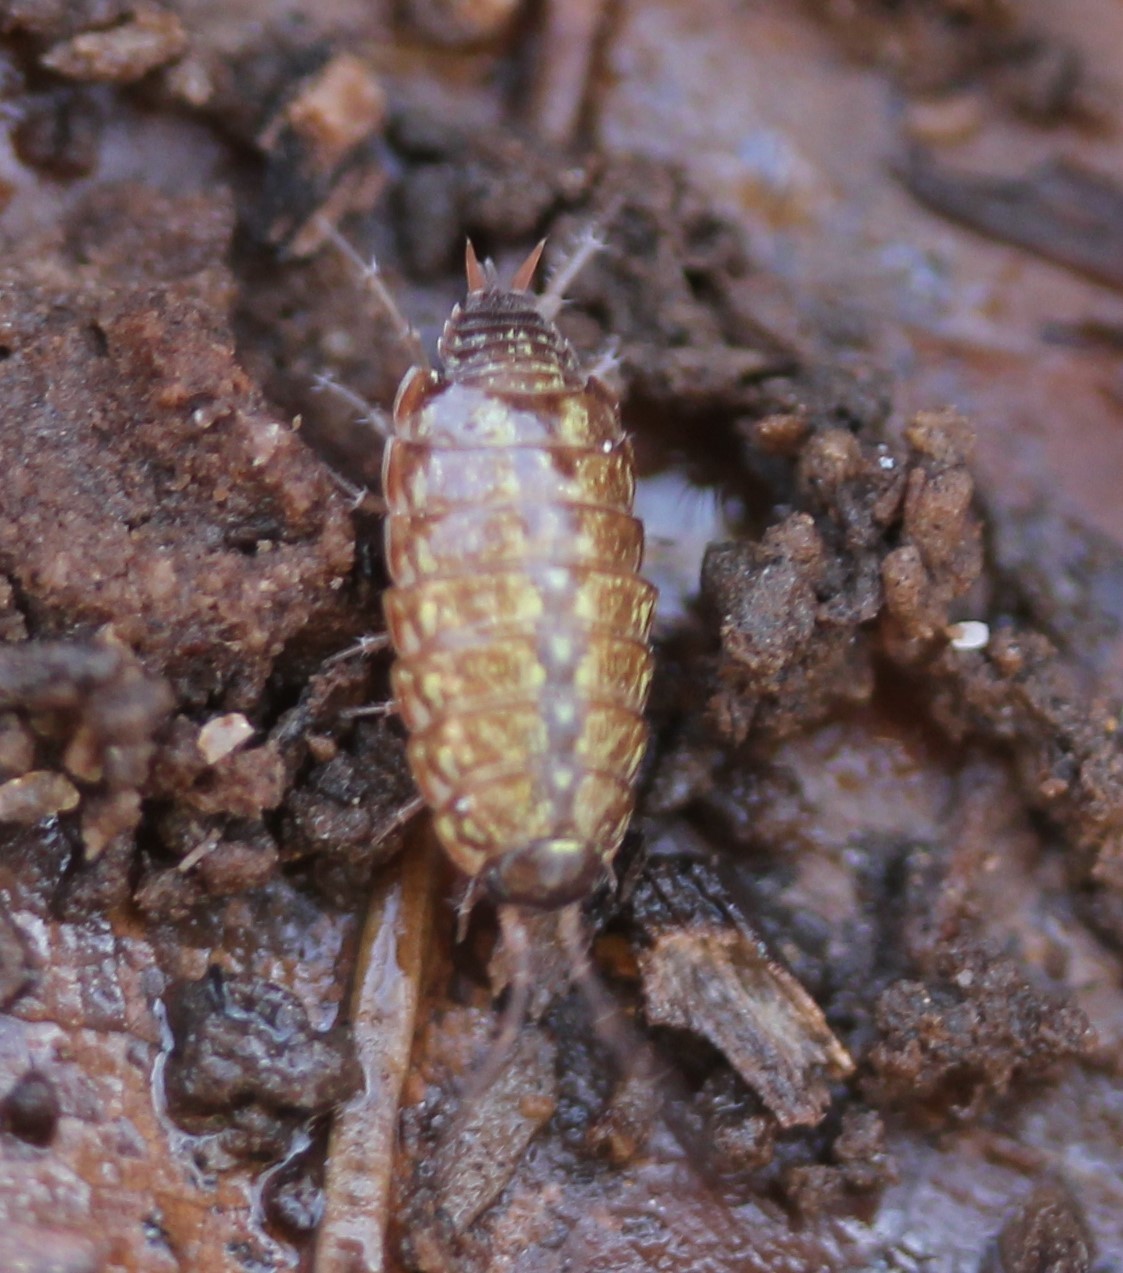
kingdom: Animalia
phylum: Arthropoda
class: Malacostraca
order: Isopoda
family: Philosciidae
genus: Philoscia
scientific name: Philoscia muscorum
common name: Common striped woodlouse
